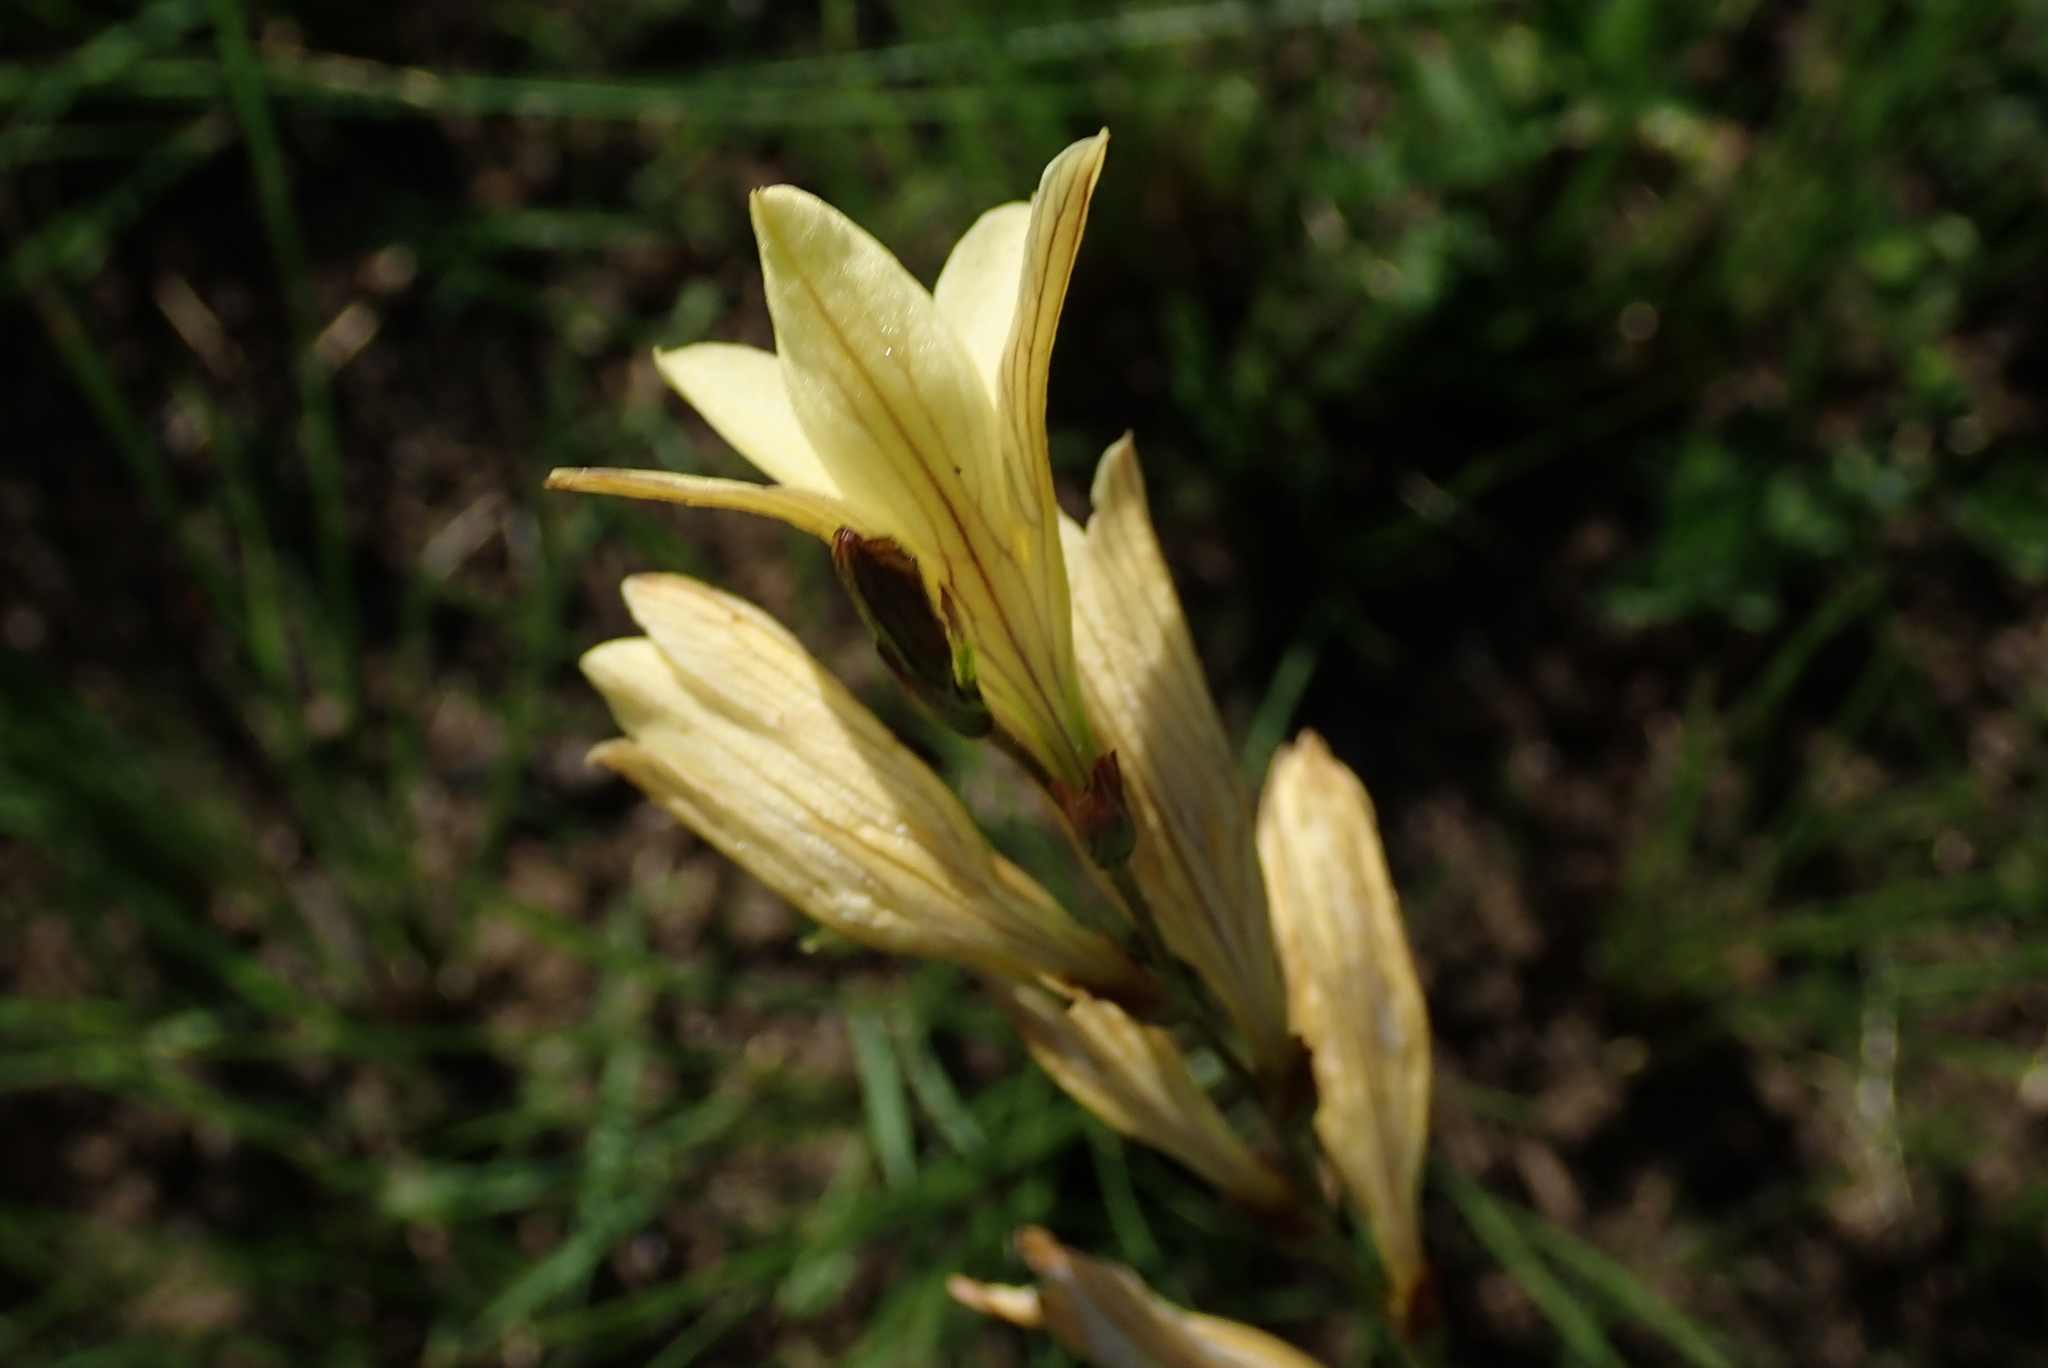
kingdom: Plantae
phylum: Tracheophyta
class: Liliopsida
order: Asparagales
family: Iridaceae
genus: Tritonia
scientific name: Tritonia gladiolaris
